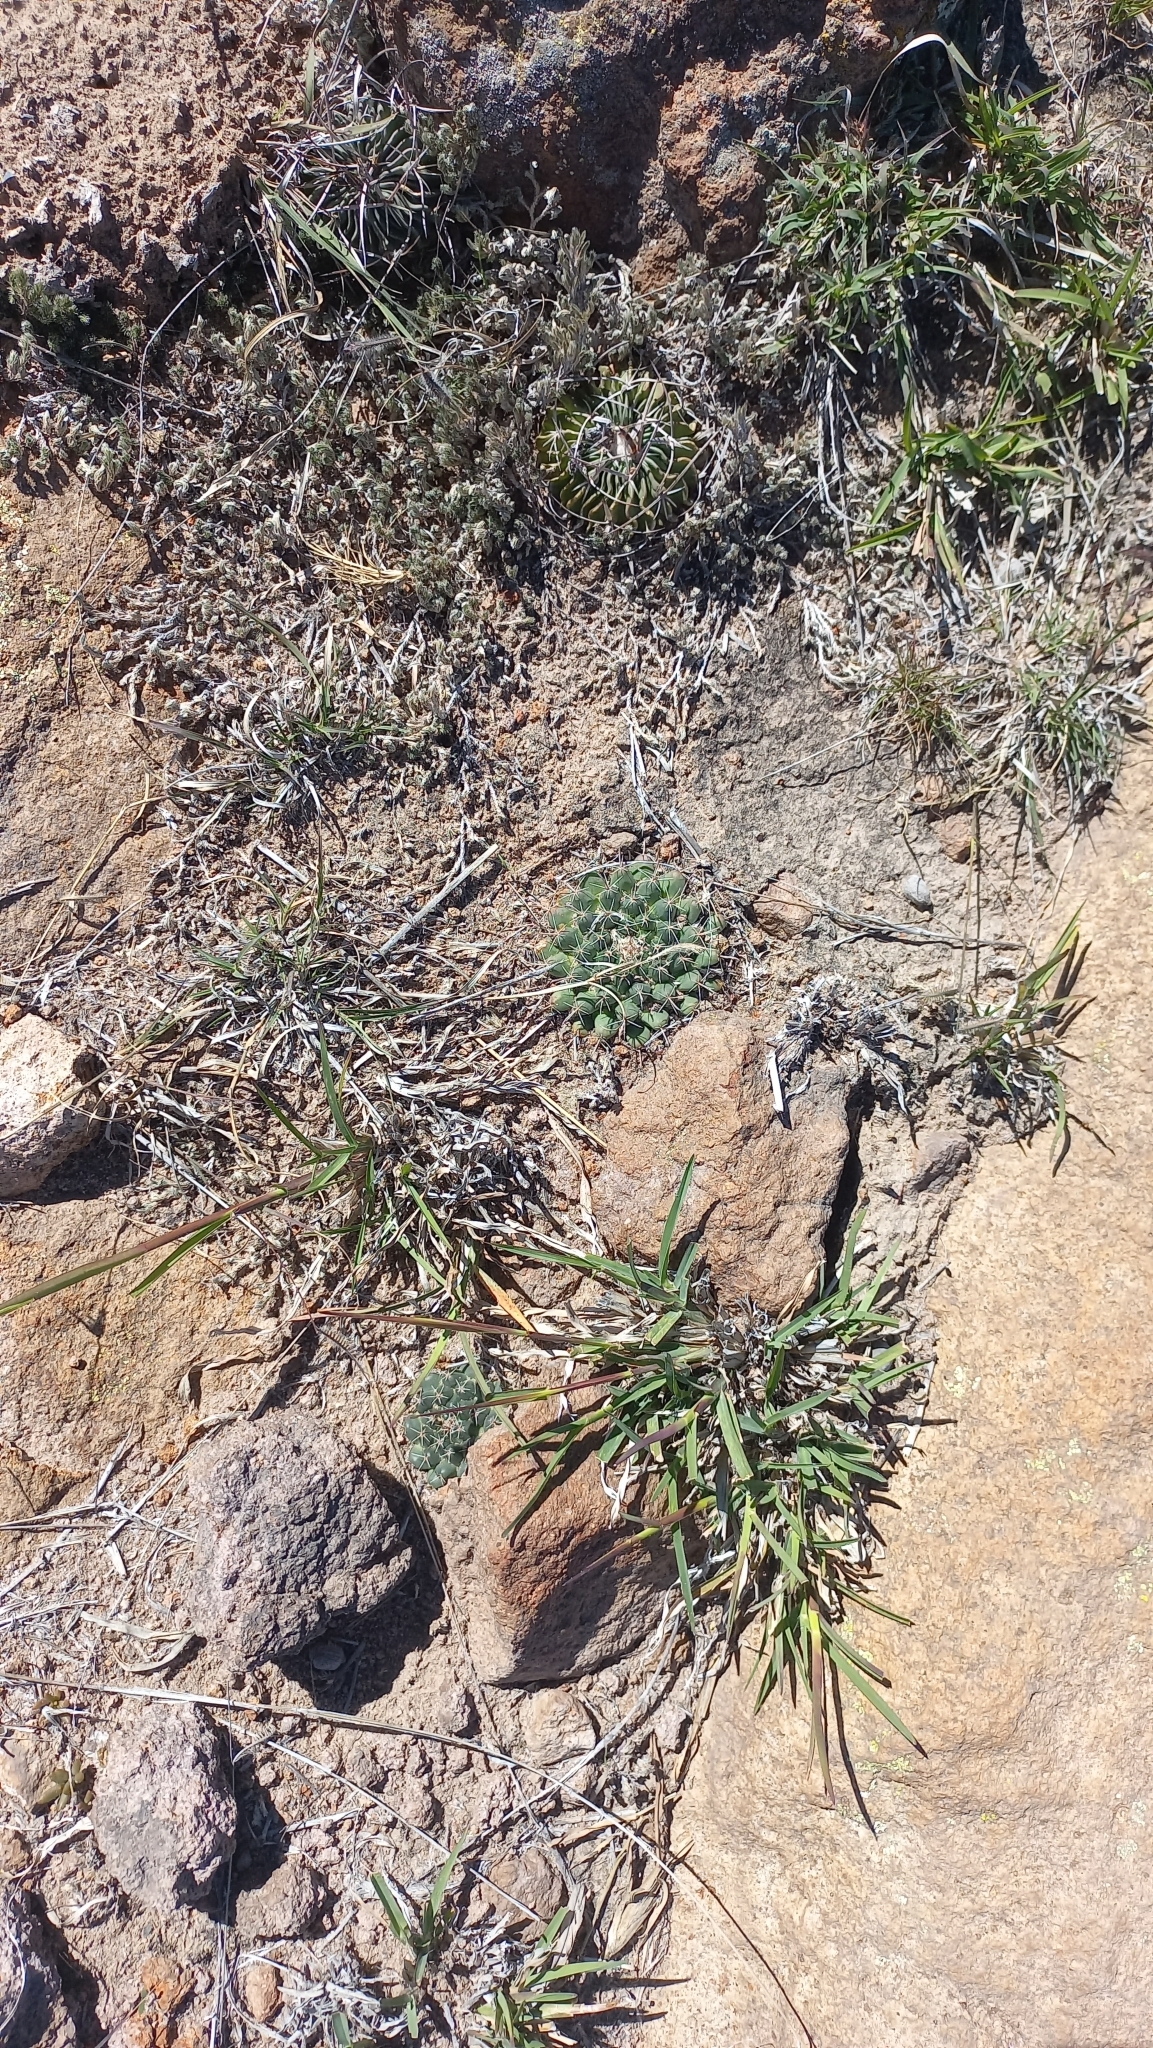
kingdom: Plantae
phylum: Tracheophyta
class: Magnoliopsida
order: Caryophyllales
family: Cactaceae
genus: Mammillaria
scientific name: Mammillaria uncinata
